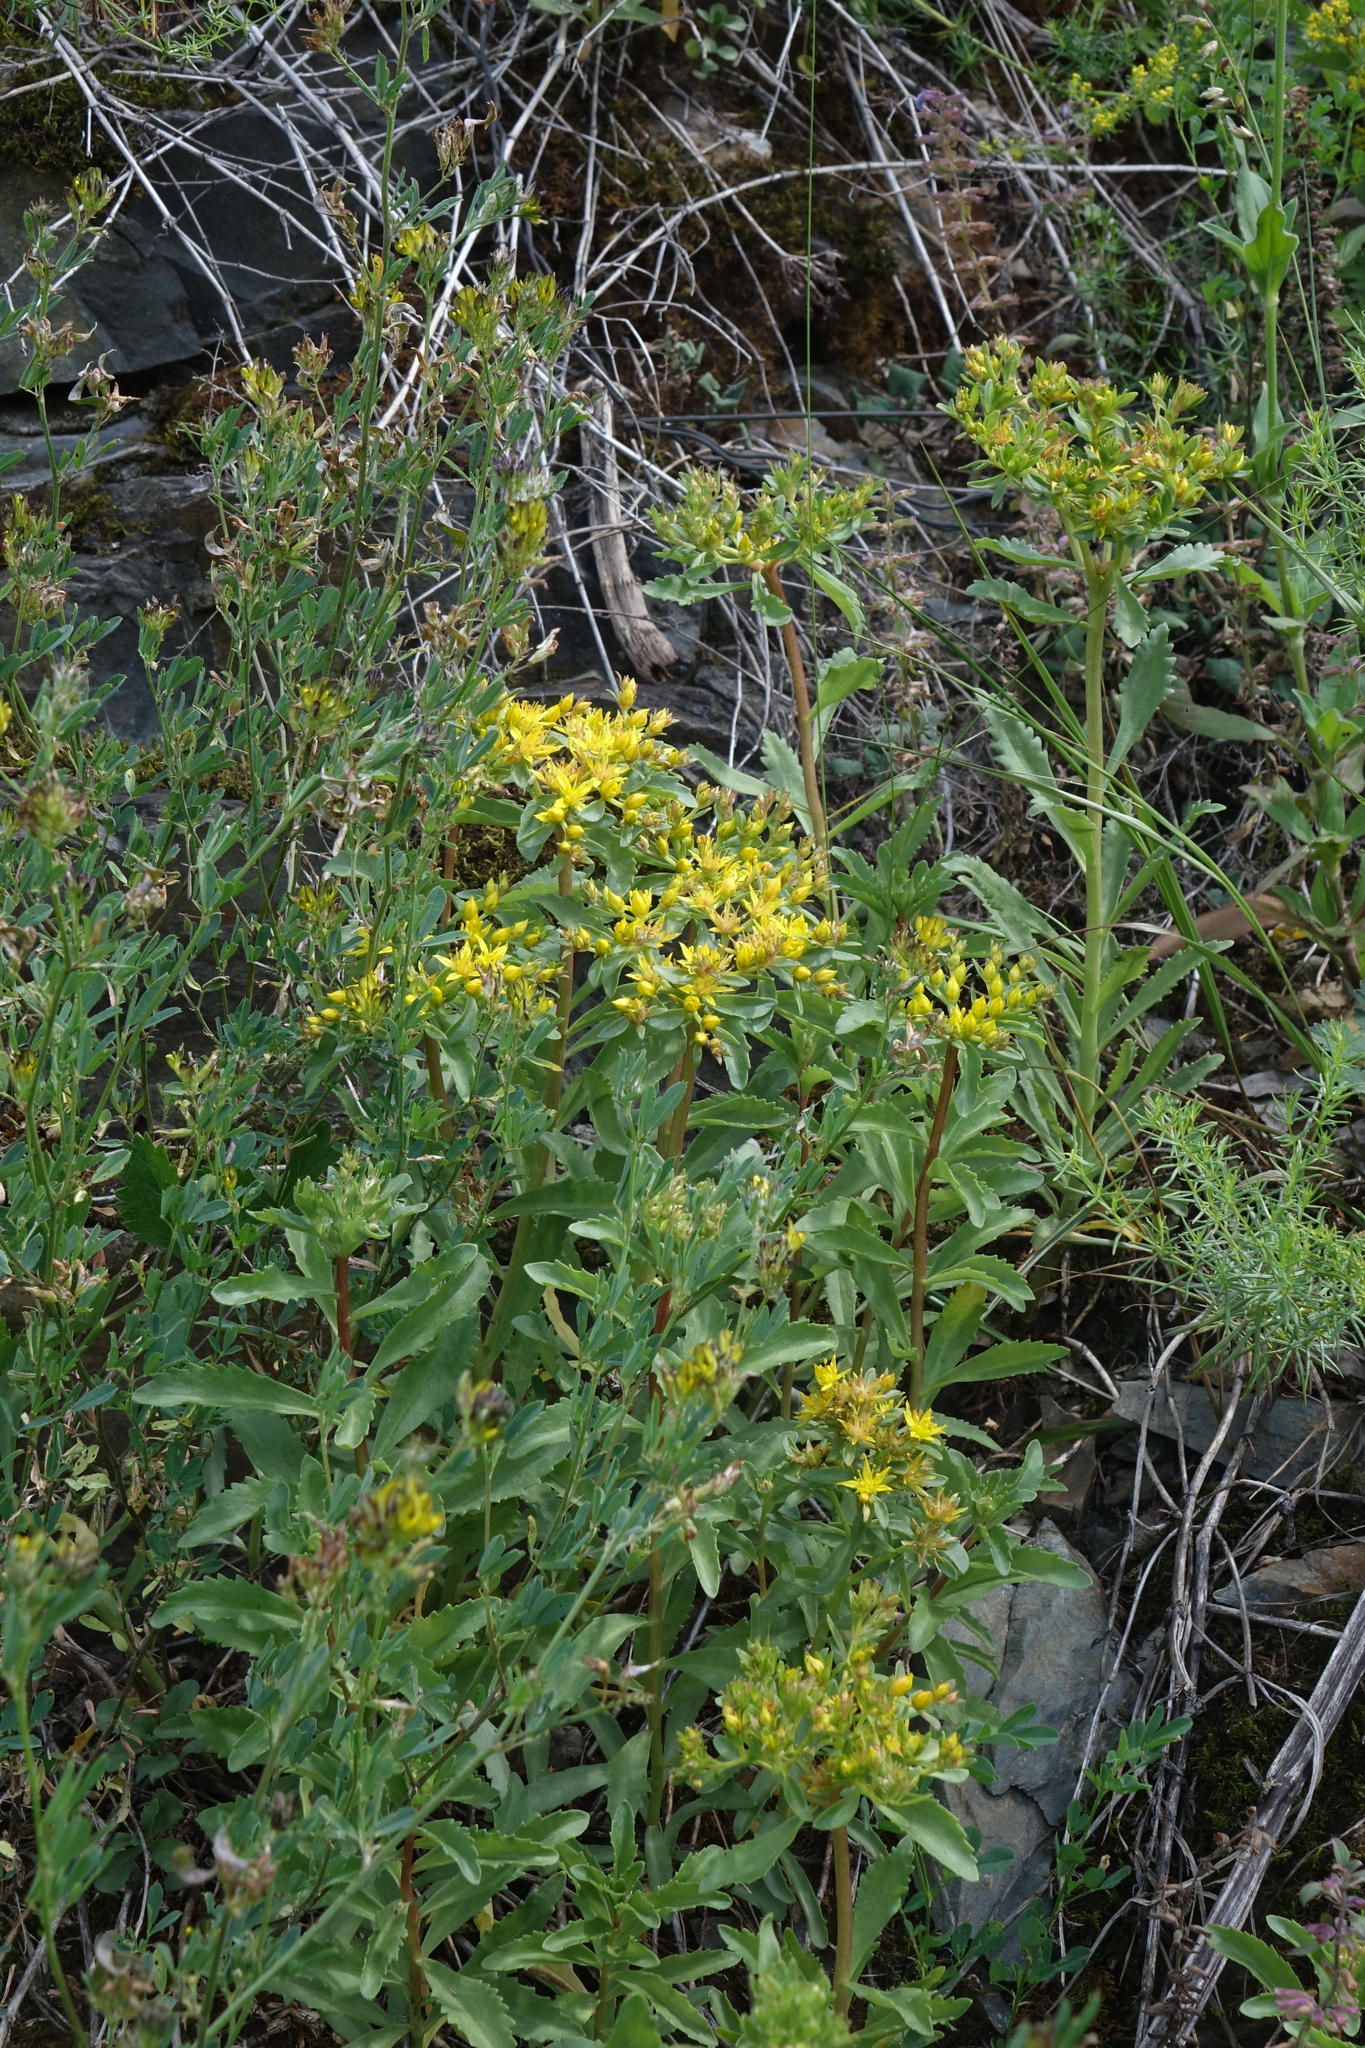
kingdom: Plantae
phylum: Tracheophyta
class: Magnoliopsida
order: Saxifragales
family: Crassulaceae
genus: Phedimus
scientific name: Phedimus aizoon
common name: Orpin aizoon
